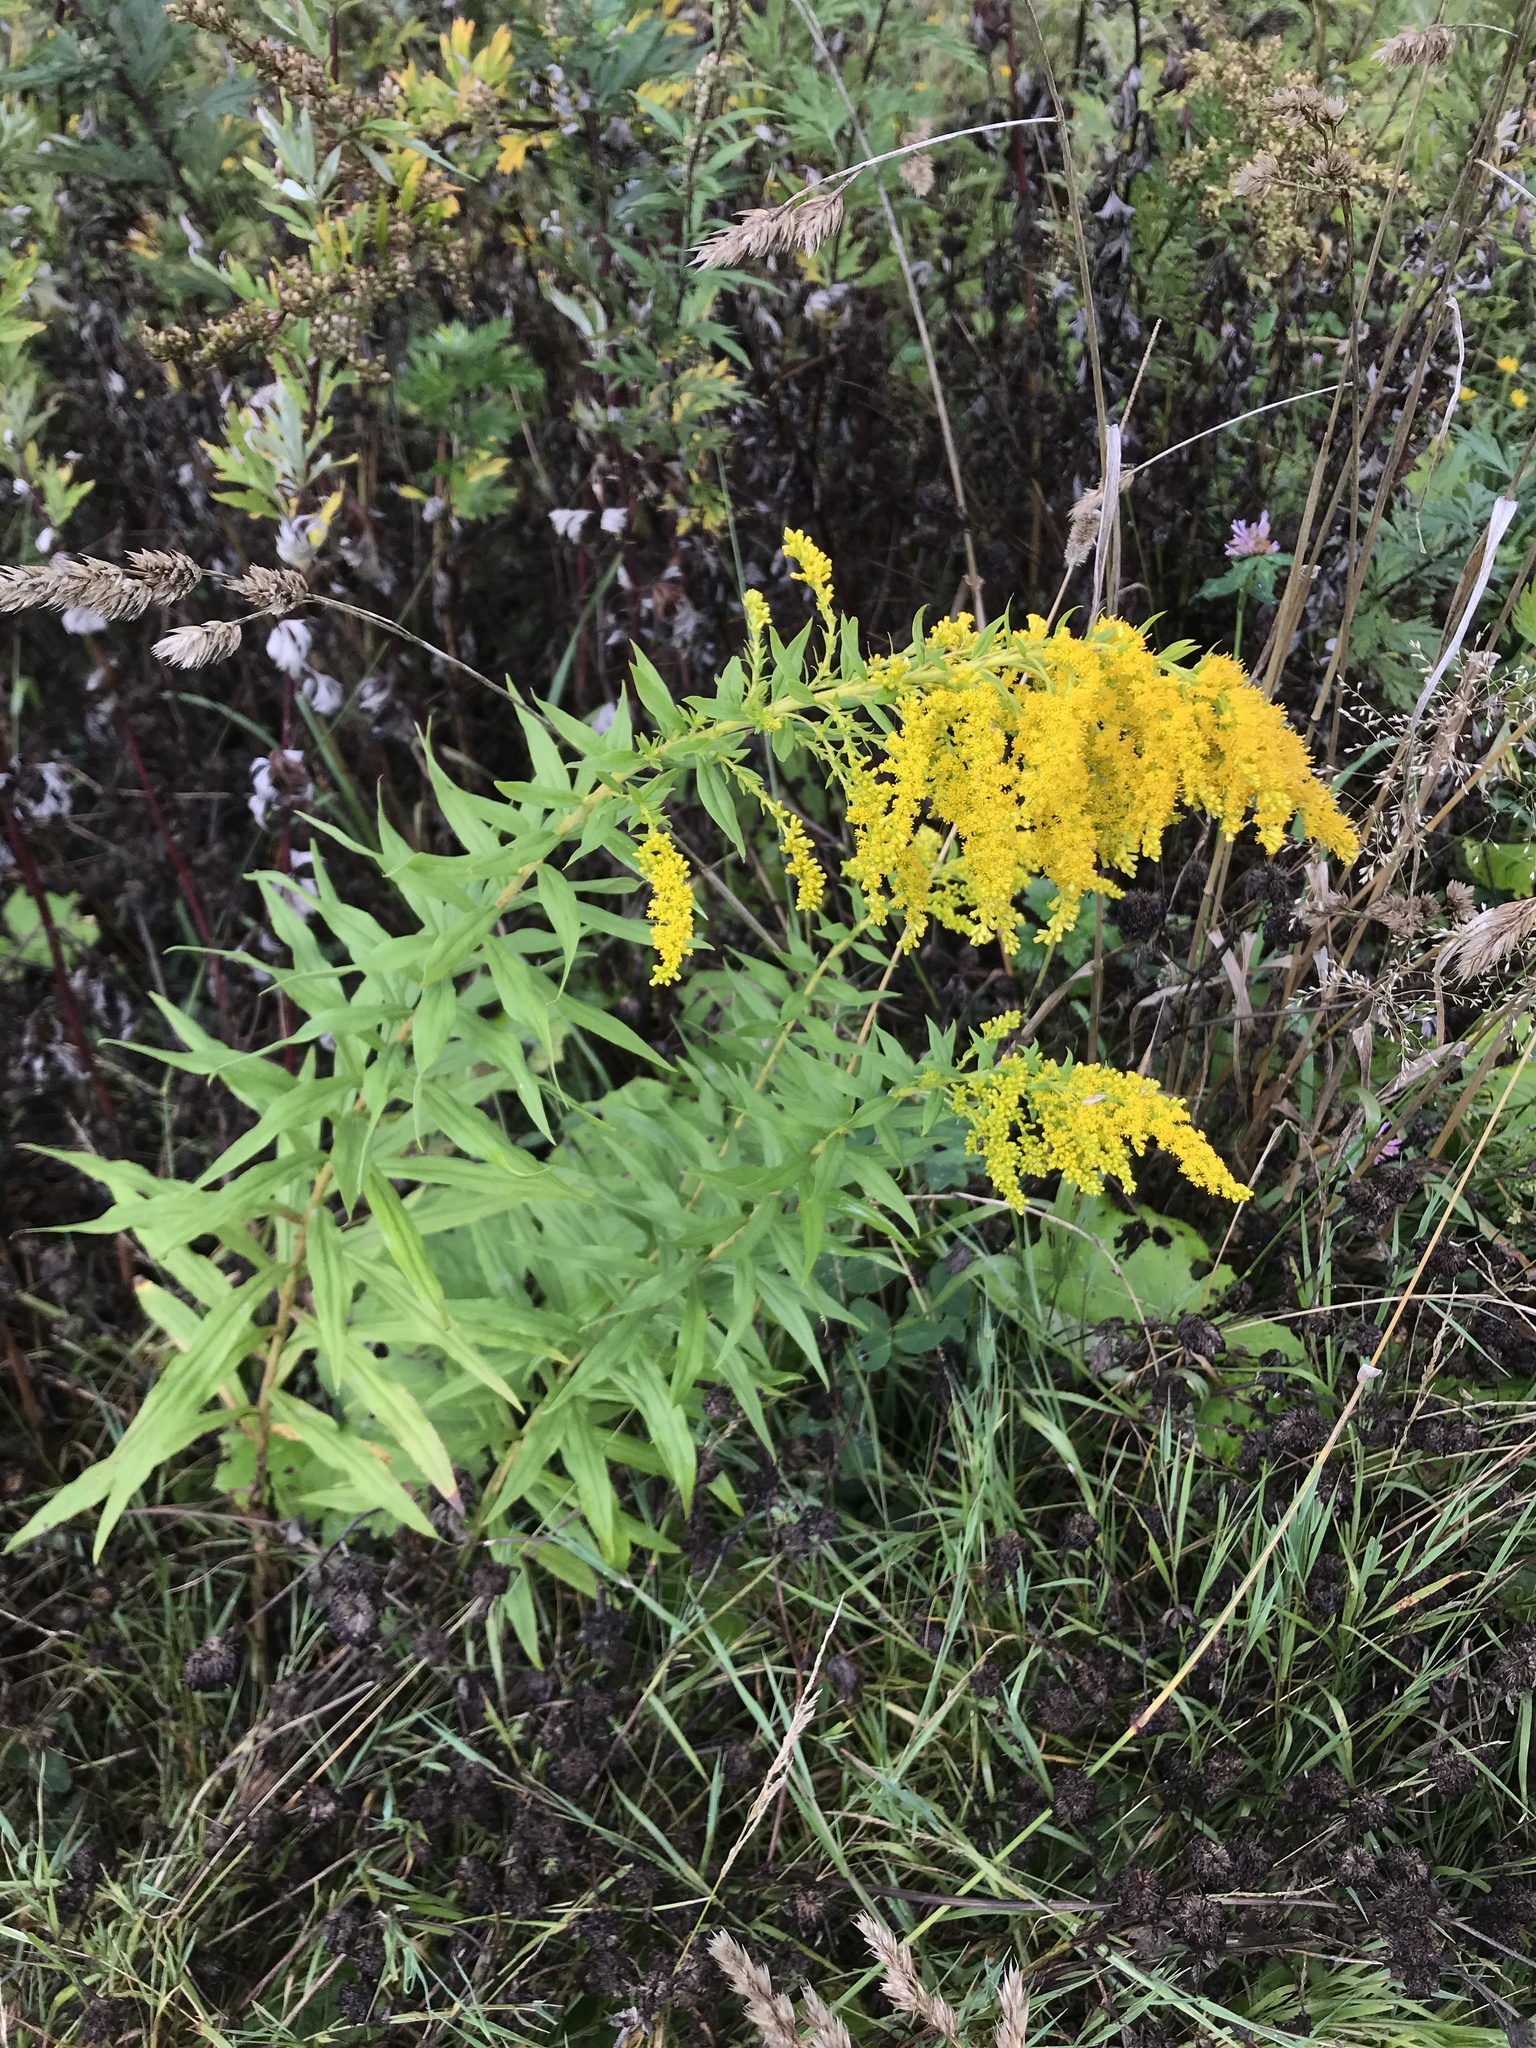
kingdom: Plantae
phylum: Tracheophyta
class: Magnoliopsida
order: Asterales
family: Asteraceae
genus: Solidago
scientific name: Solidago canadensis
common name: Canada goldenrod
